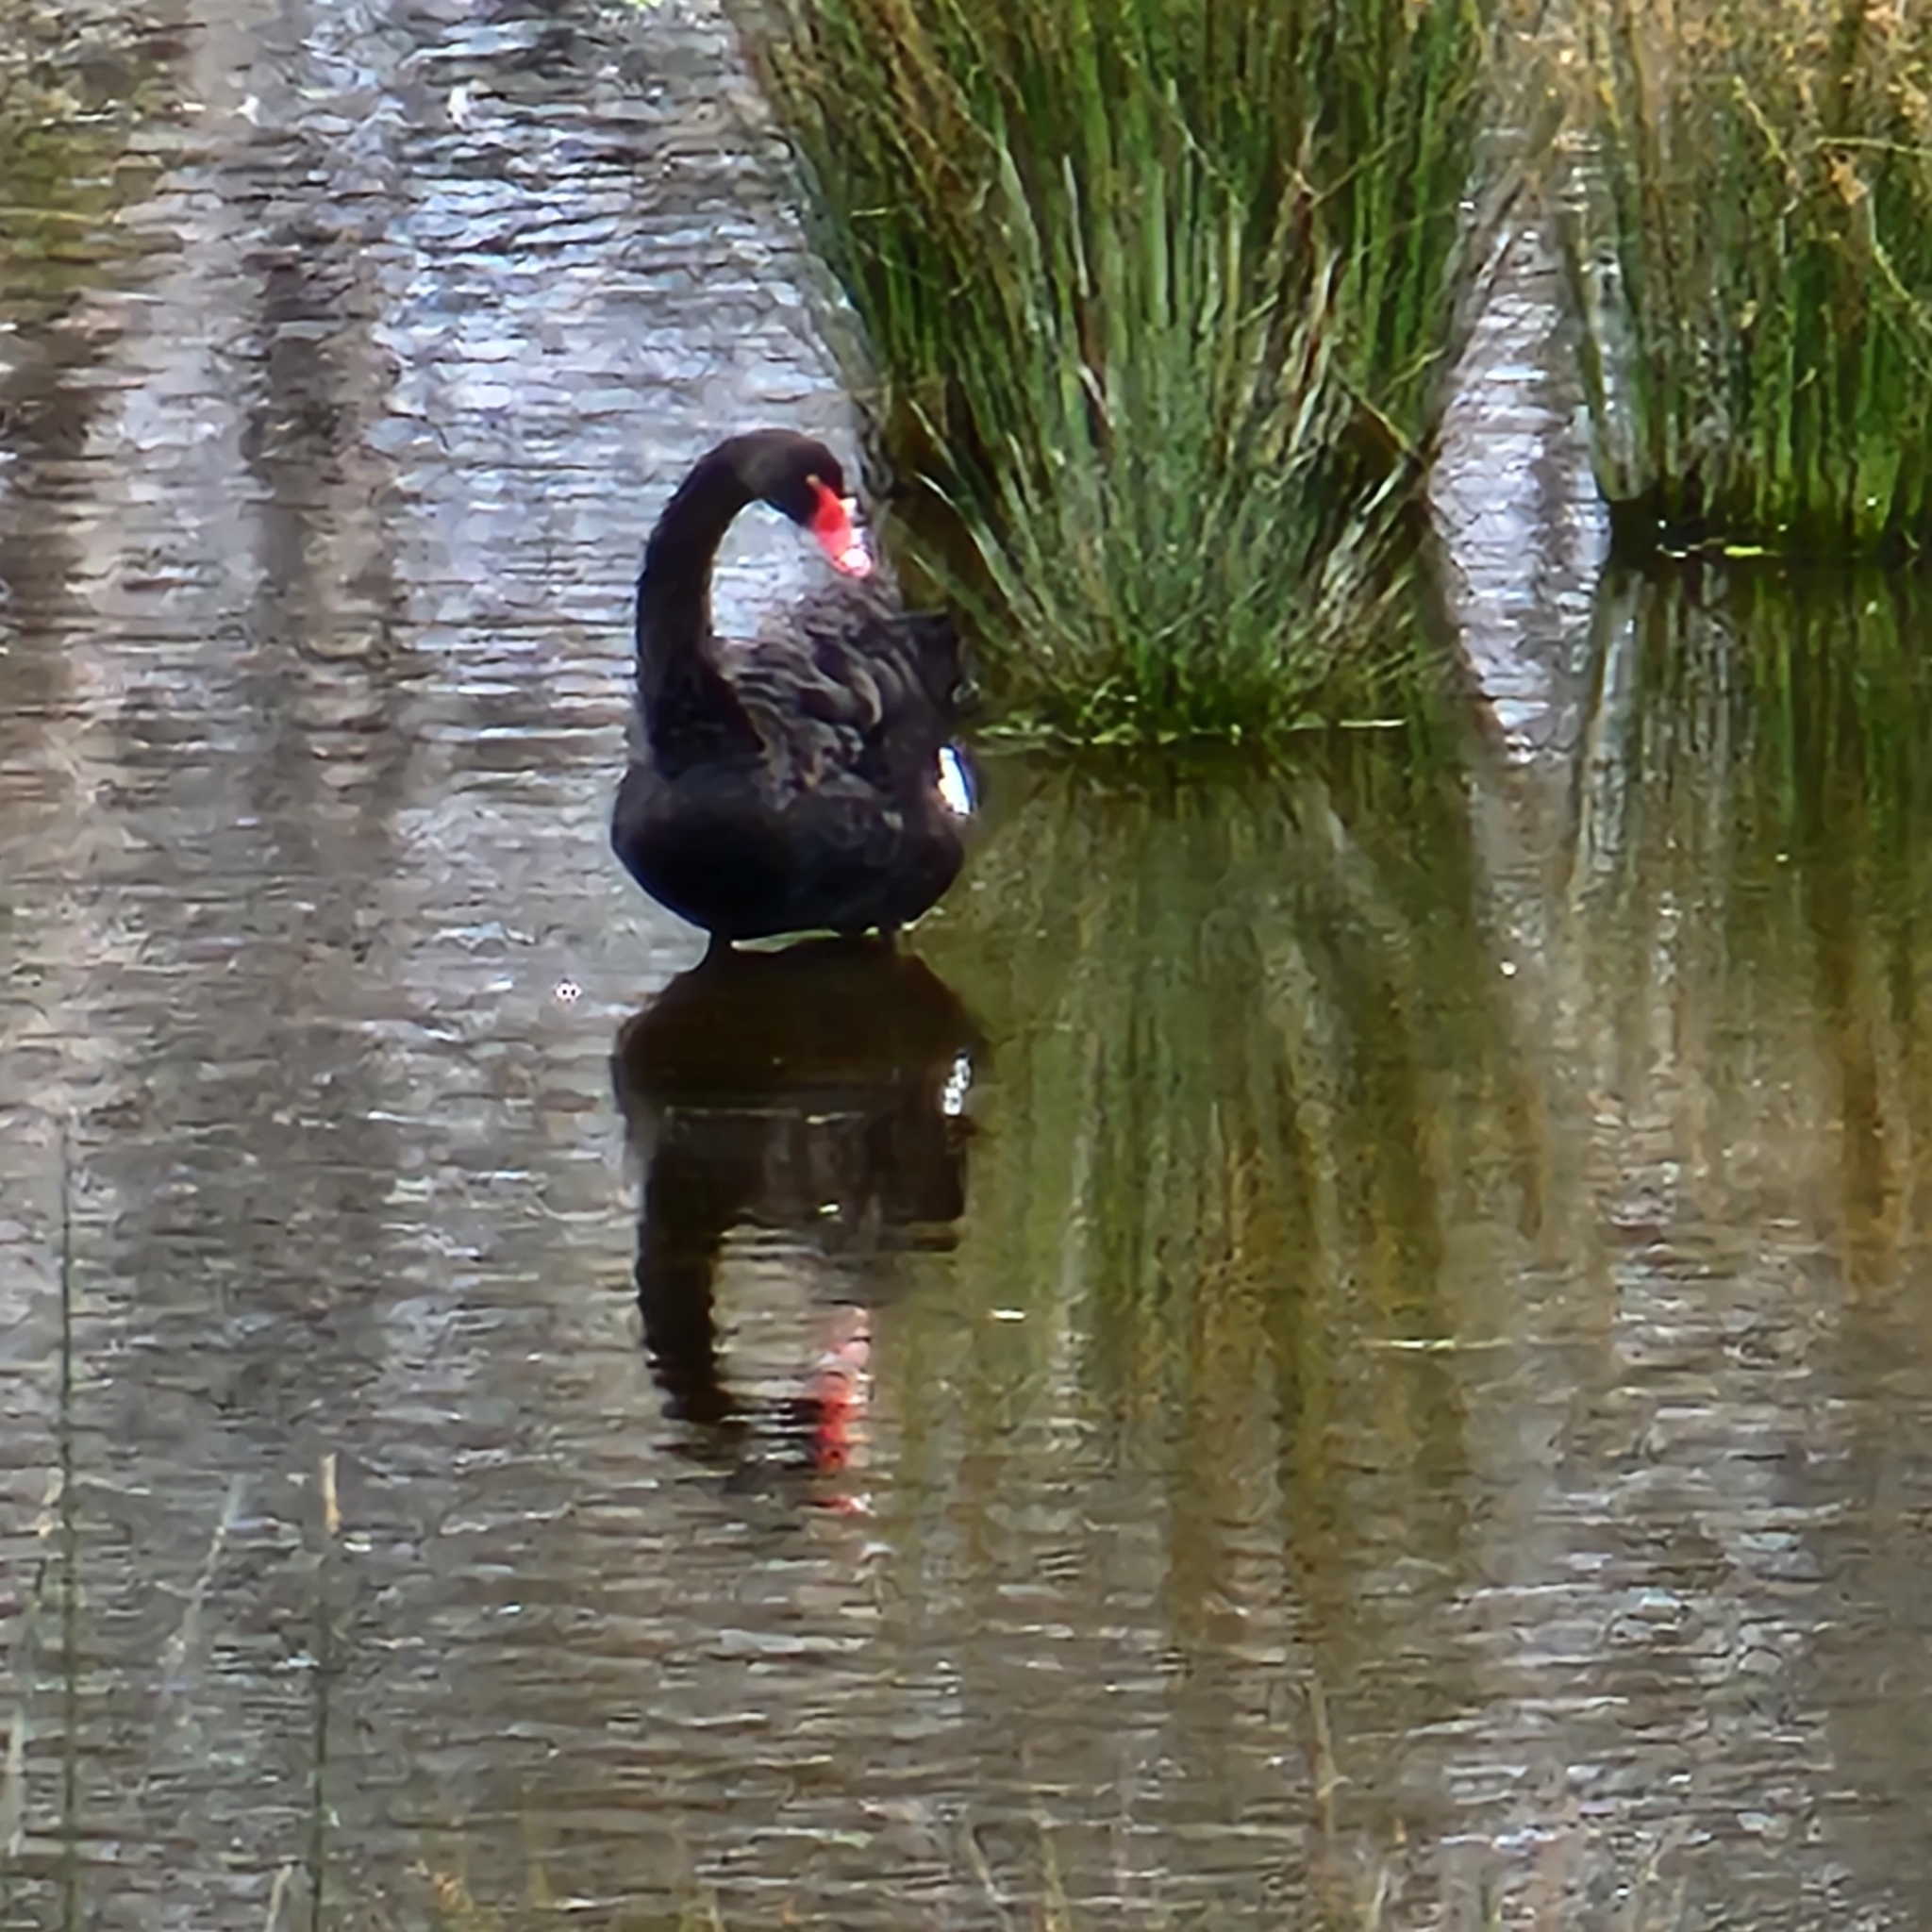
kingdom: Animalia
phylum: Chordata
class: Aves
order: Anseriformes
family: Anatidae
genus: Cygnus
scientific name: Cygnus atratus
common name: Black swan
